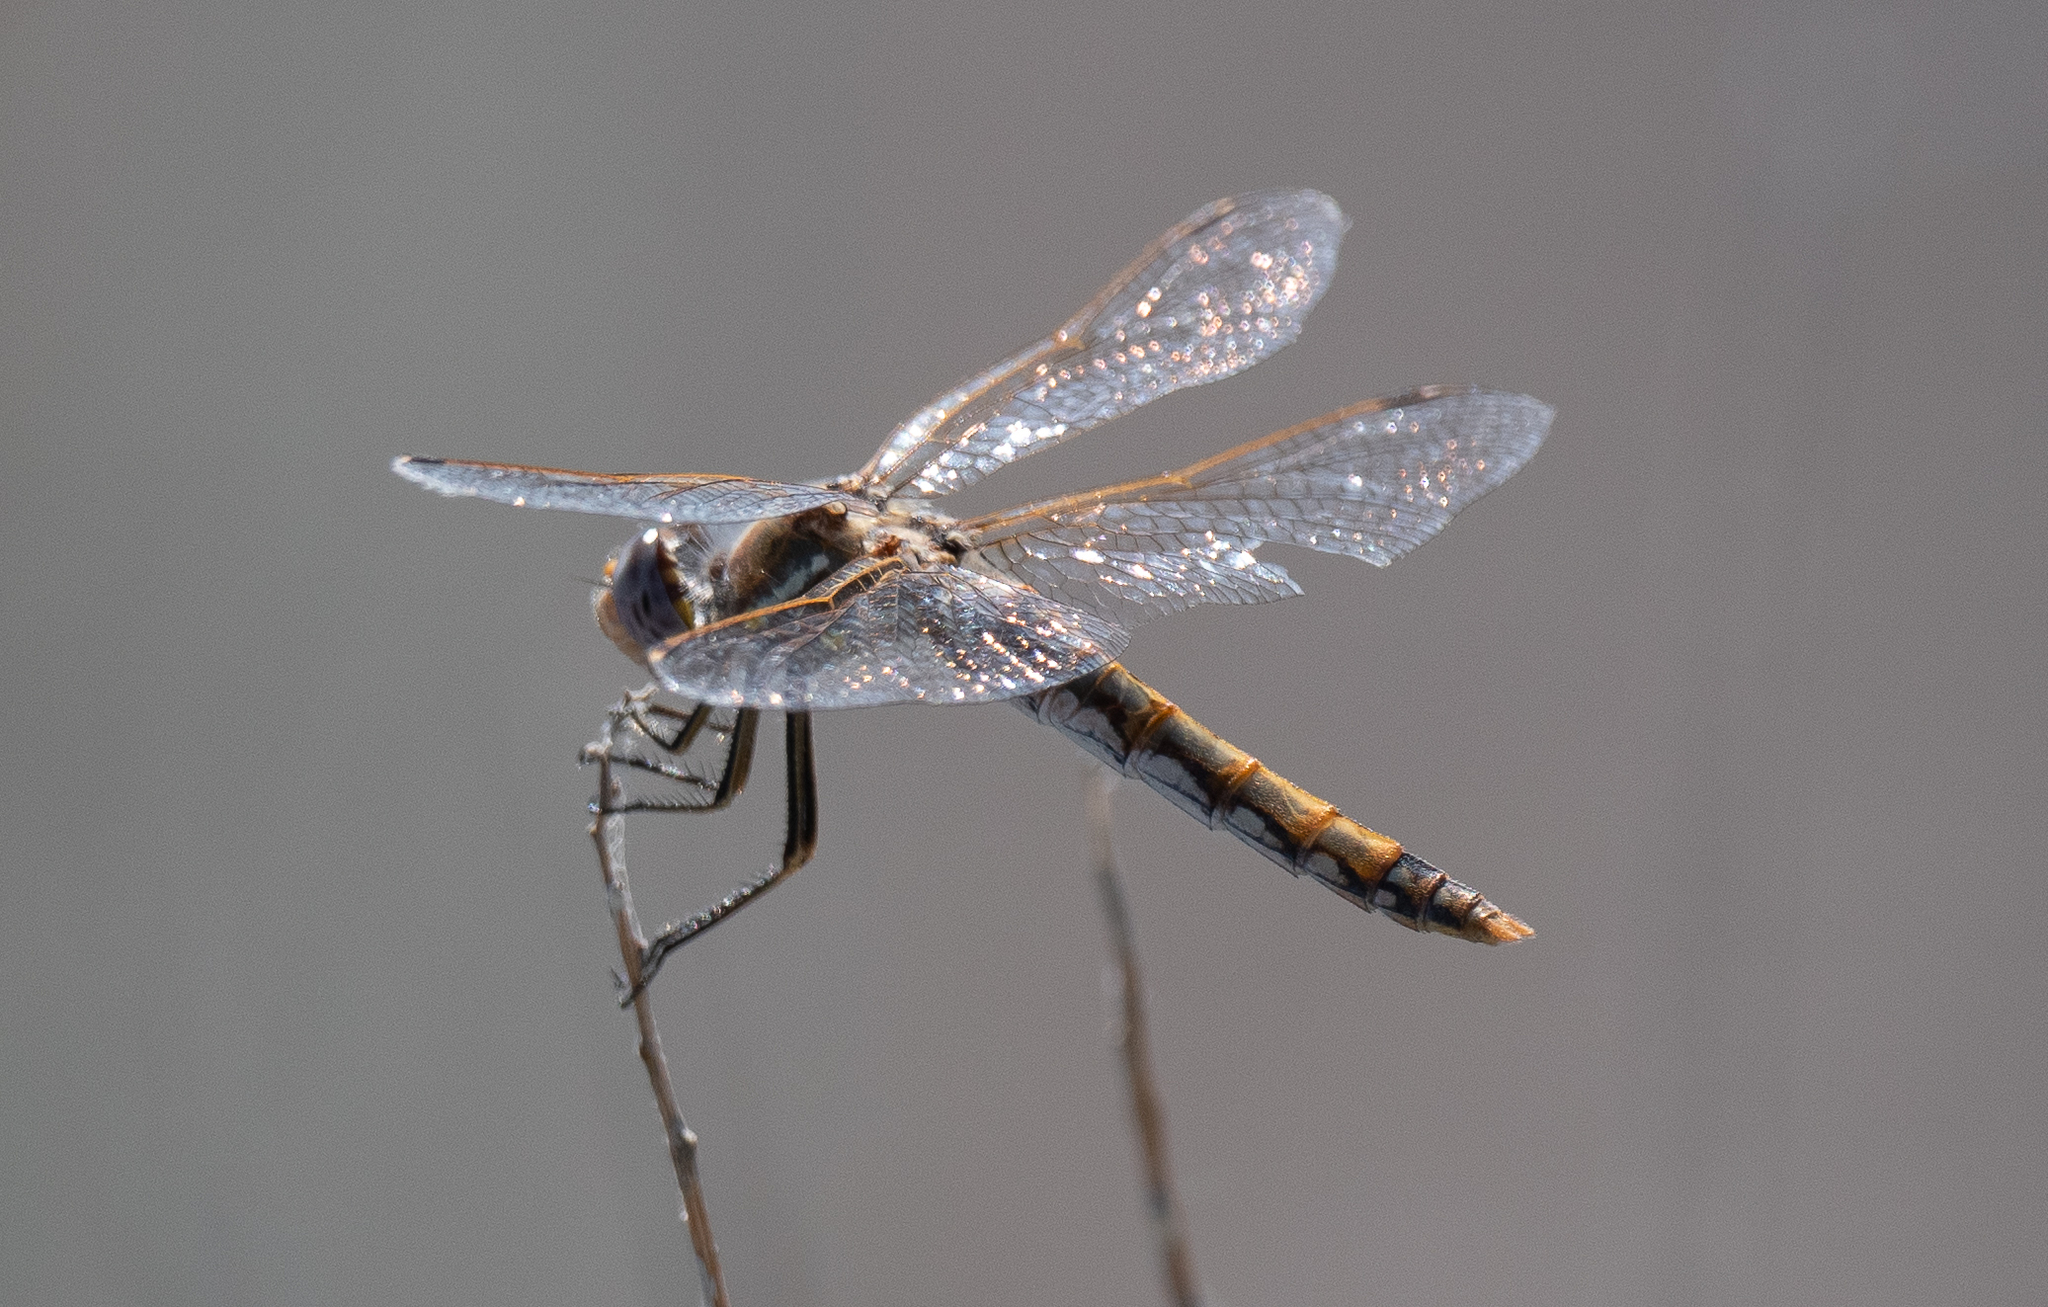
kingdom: Animalia
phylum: Arthropoda
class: Insecta
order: Odonata
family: Libellulidae
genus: Sympetrum
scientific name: Sympetrum corruptum
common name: Variegated meadowhawk
